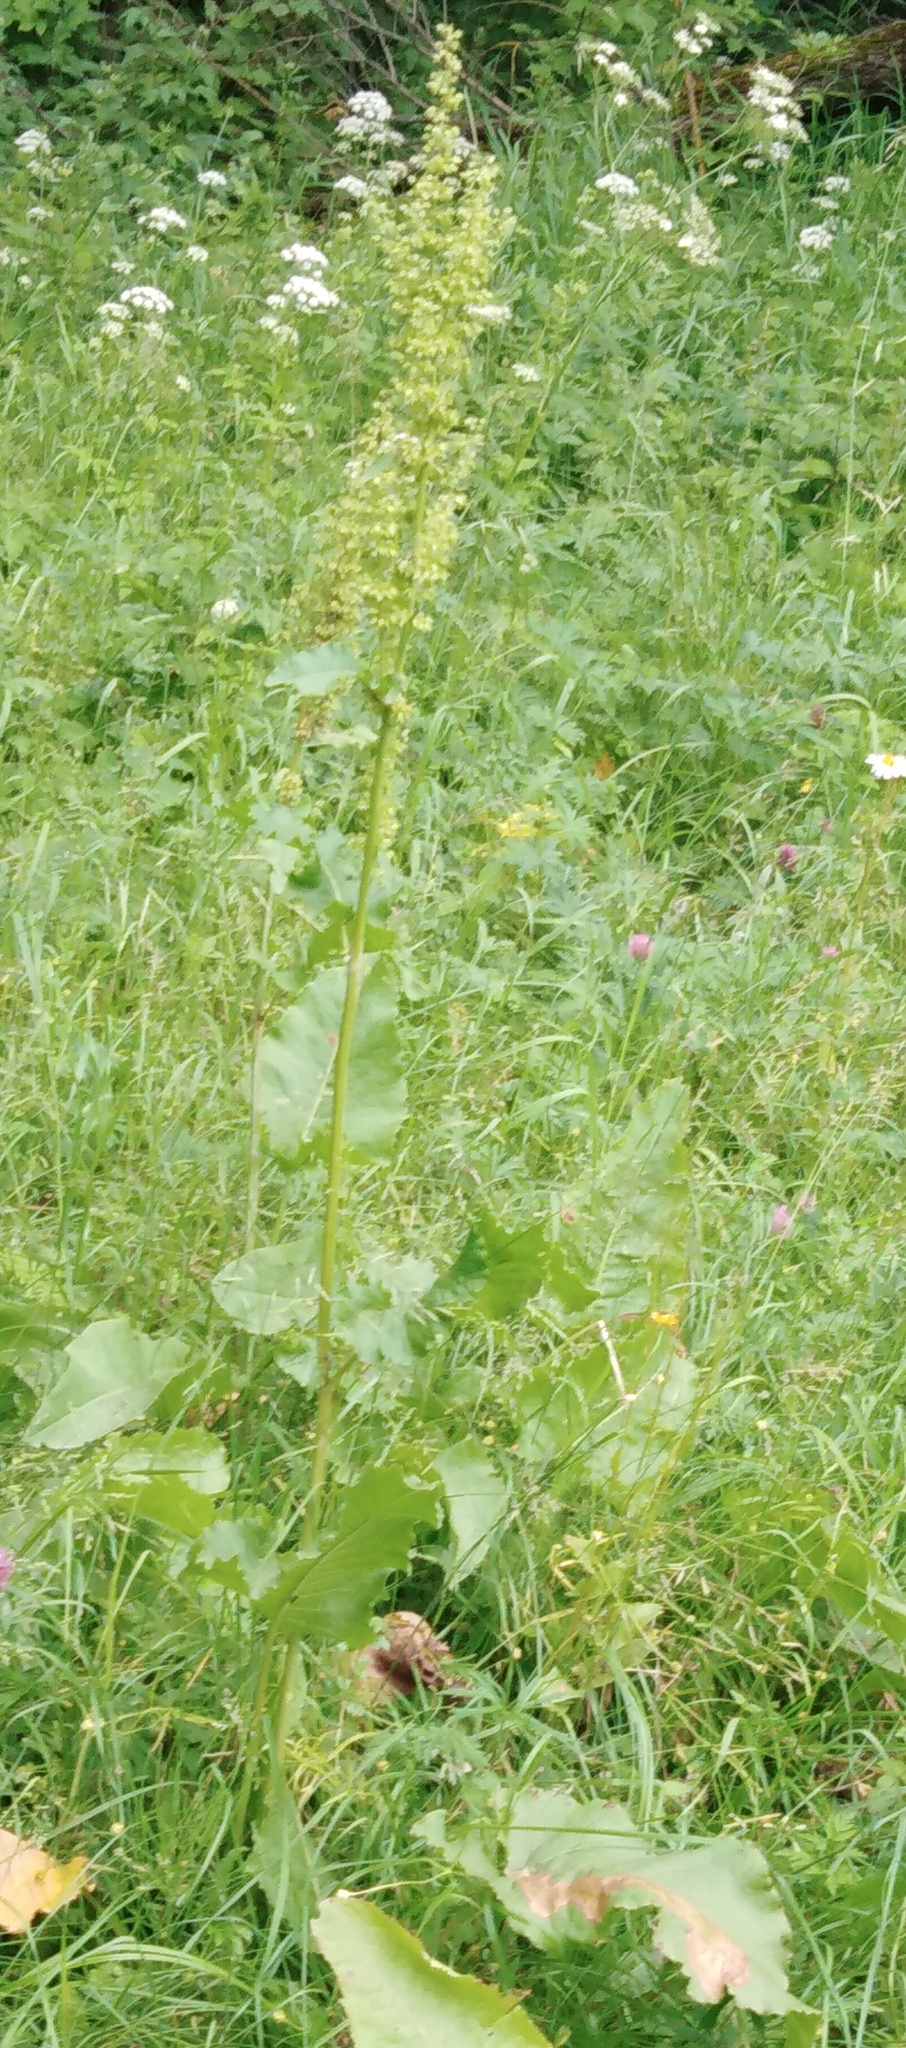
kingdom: Plantae
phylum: Tracheophyta
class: Magnoliopsida
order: Caryophyllales
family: Polygonaceae
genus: Rumex
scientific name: Rumex confertus
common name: Russian dock
